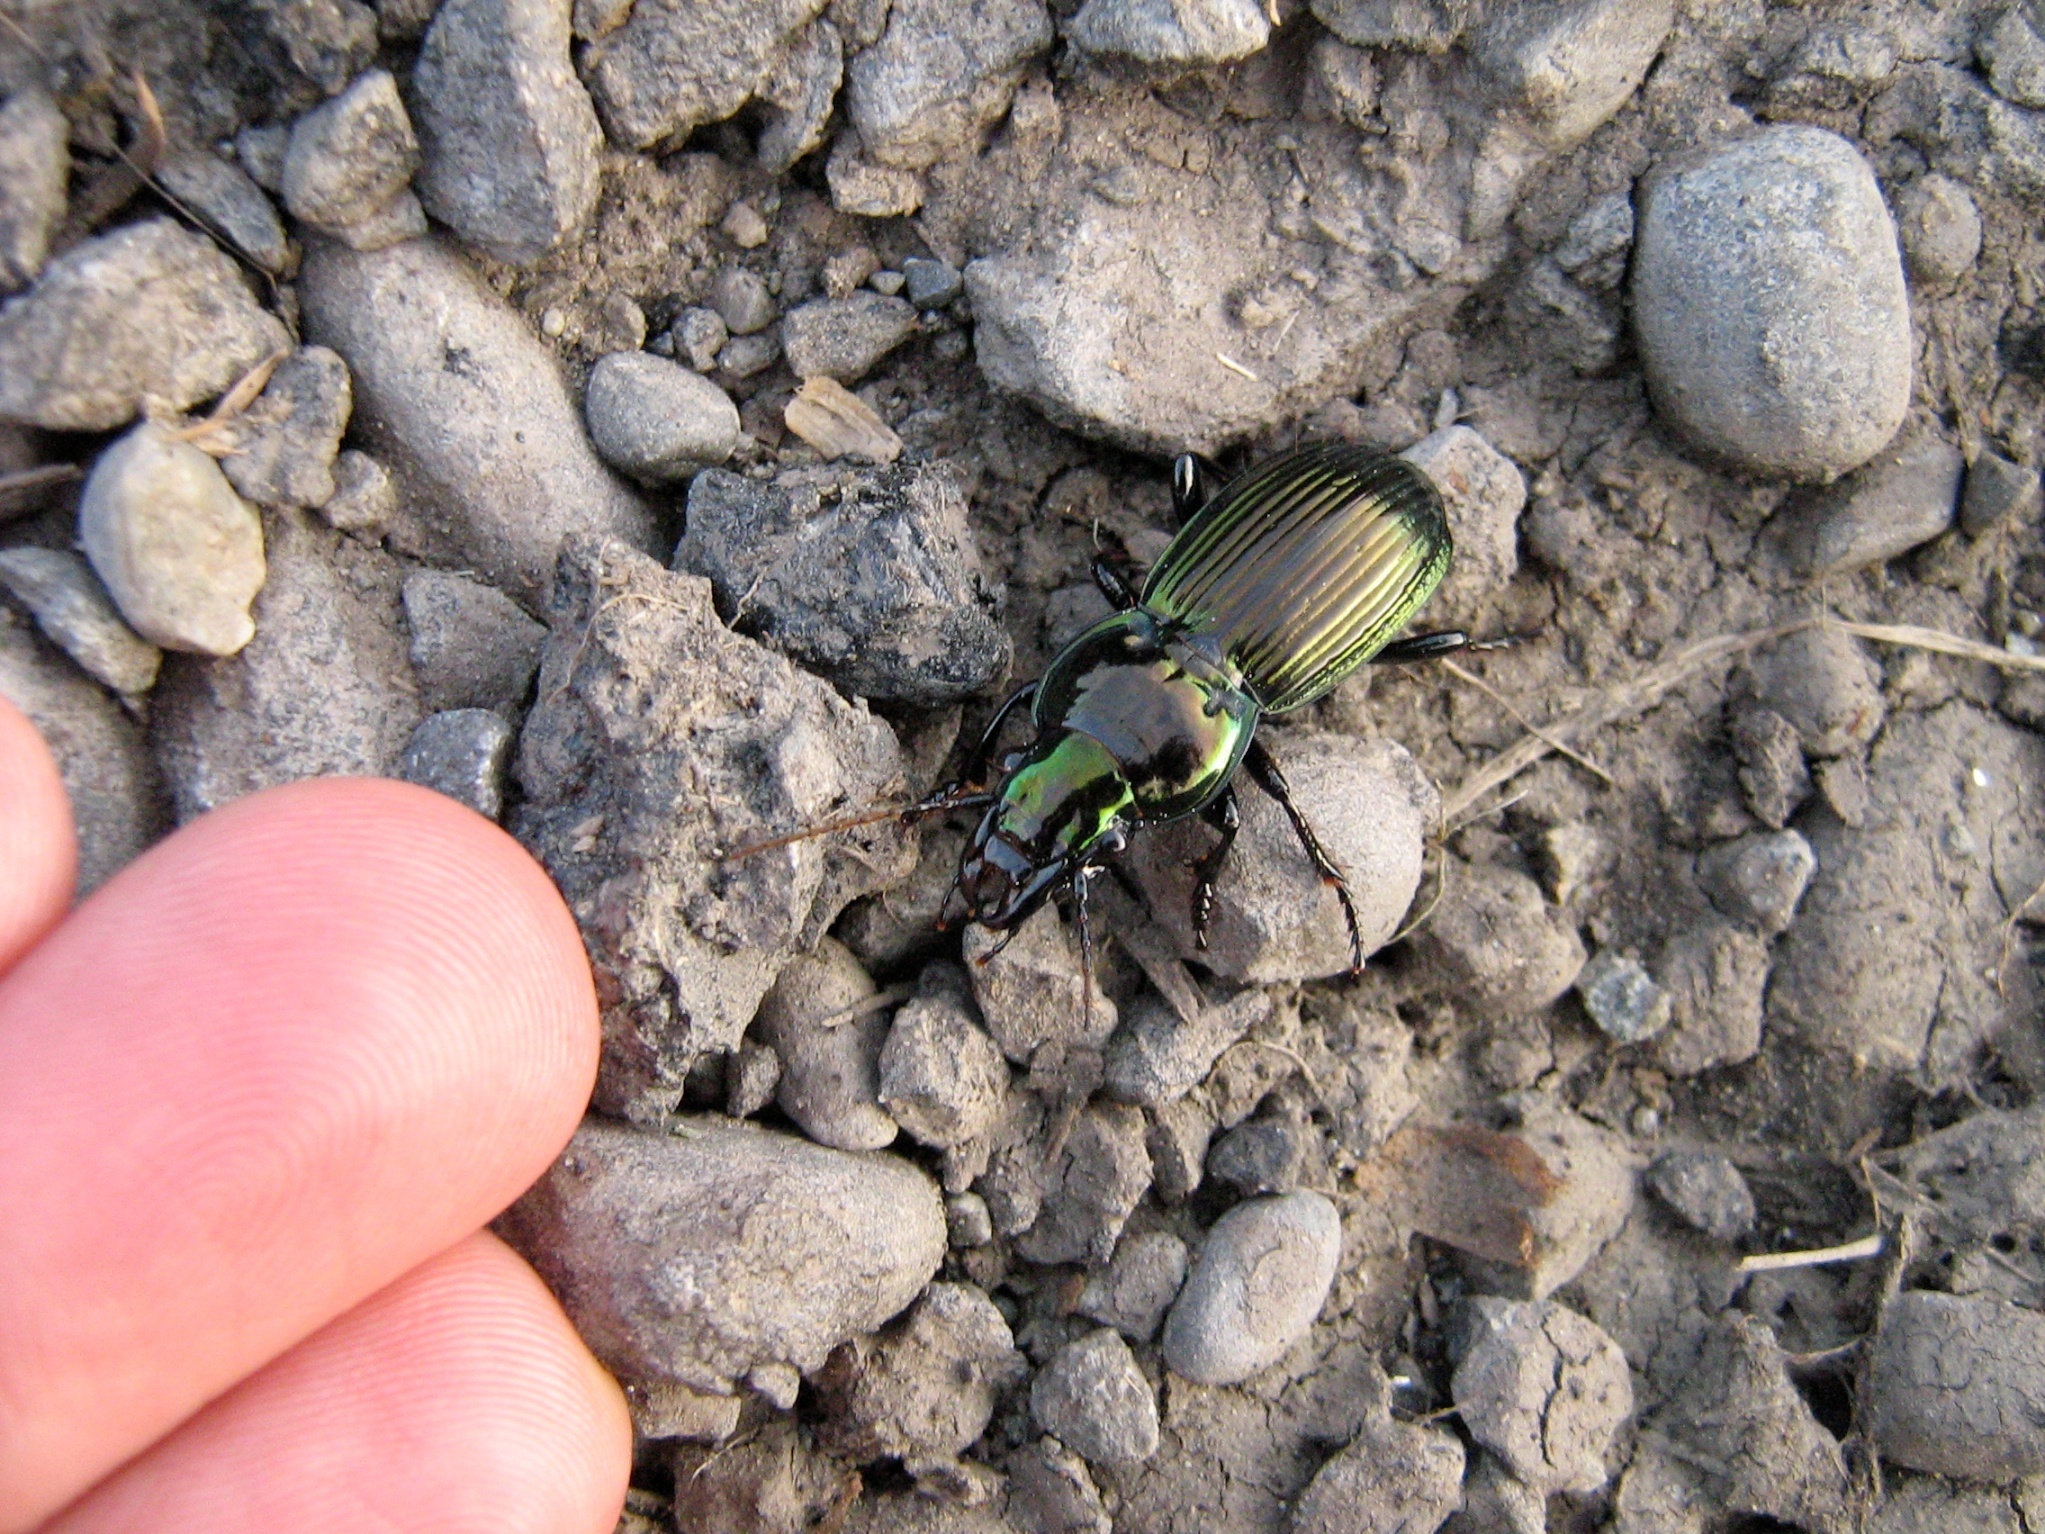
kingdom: Animalia
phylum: Arthropoda
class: Insecta
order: Coleoptera
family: Carabidae
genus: Megadromus
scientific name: Megadromus antarcticus
